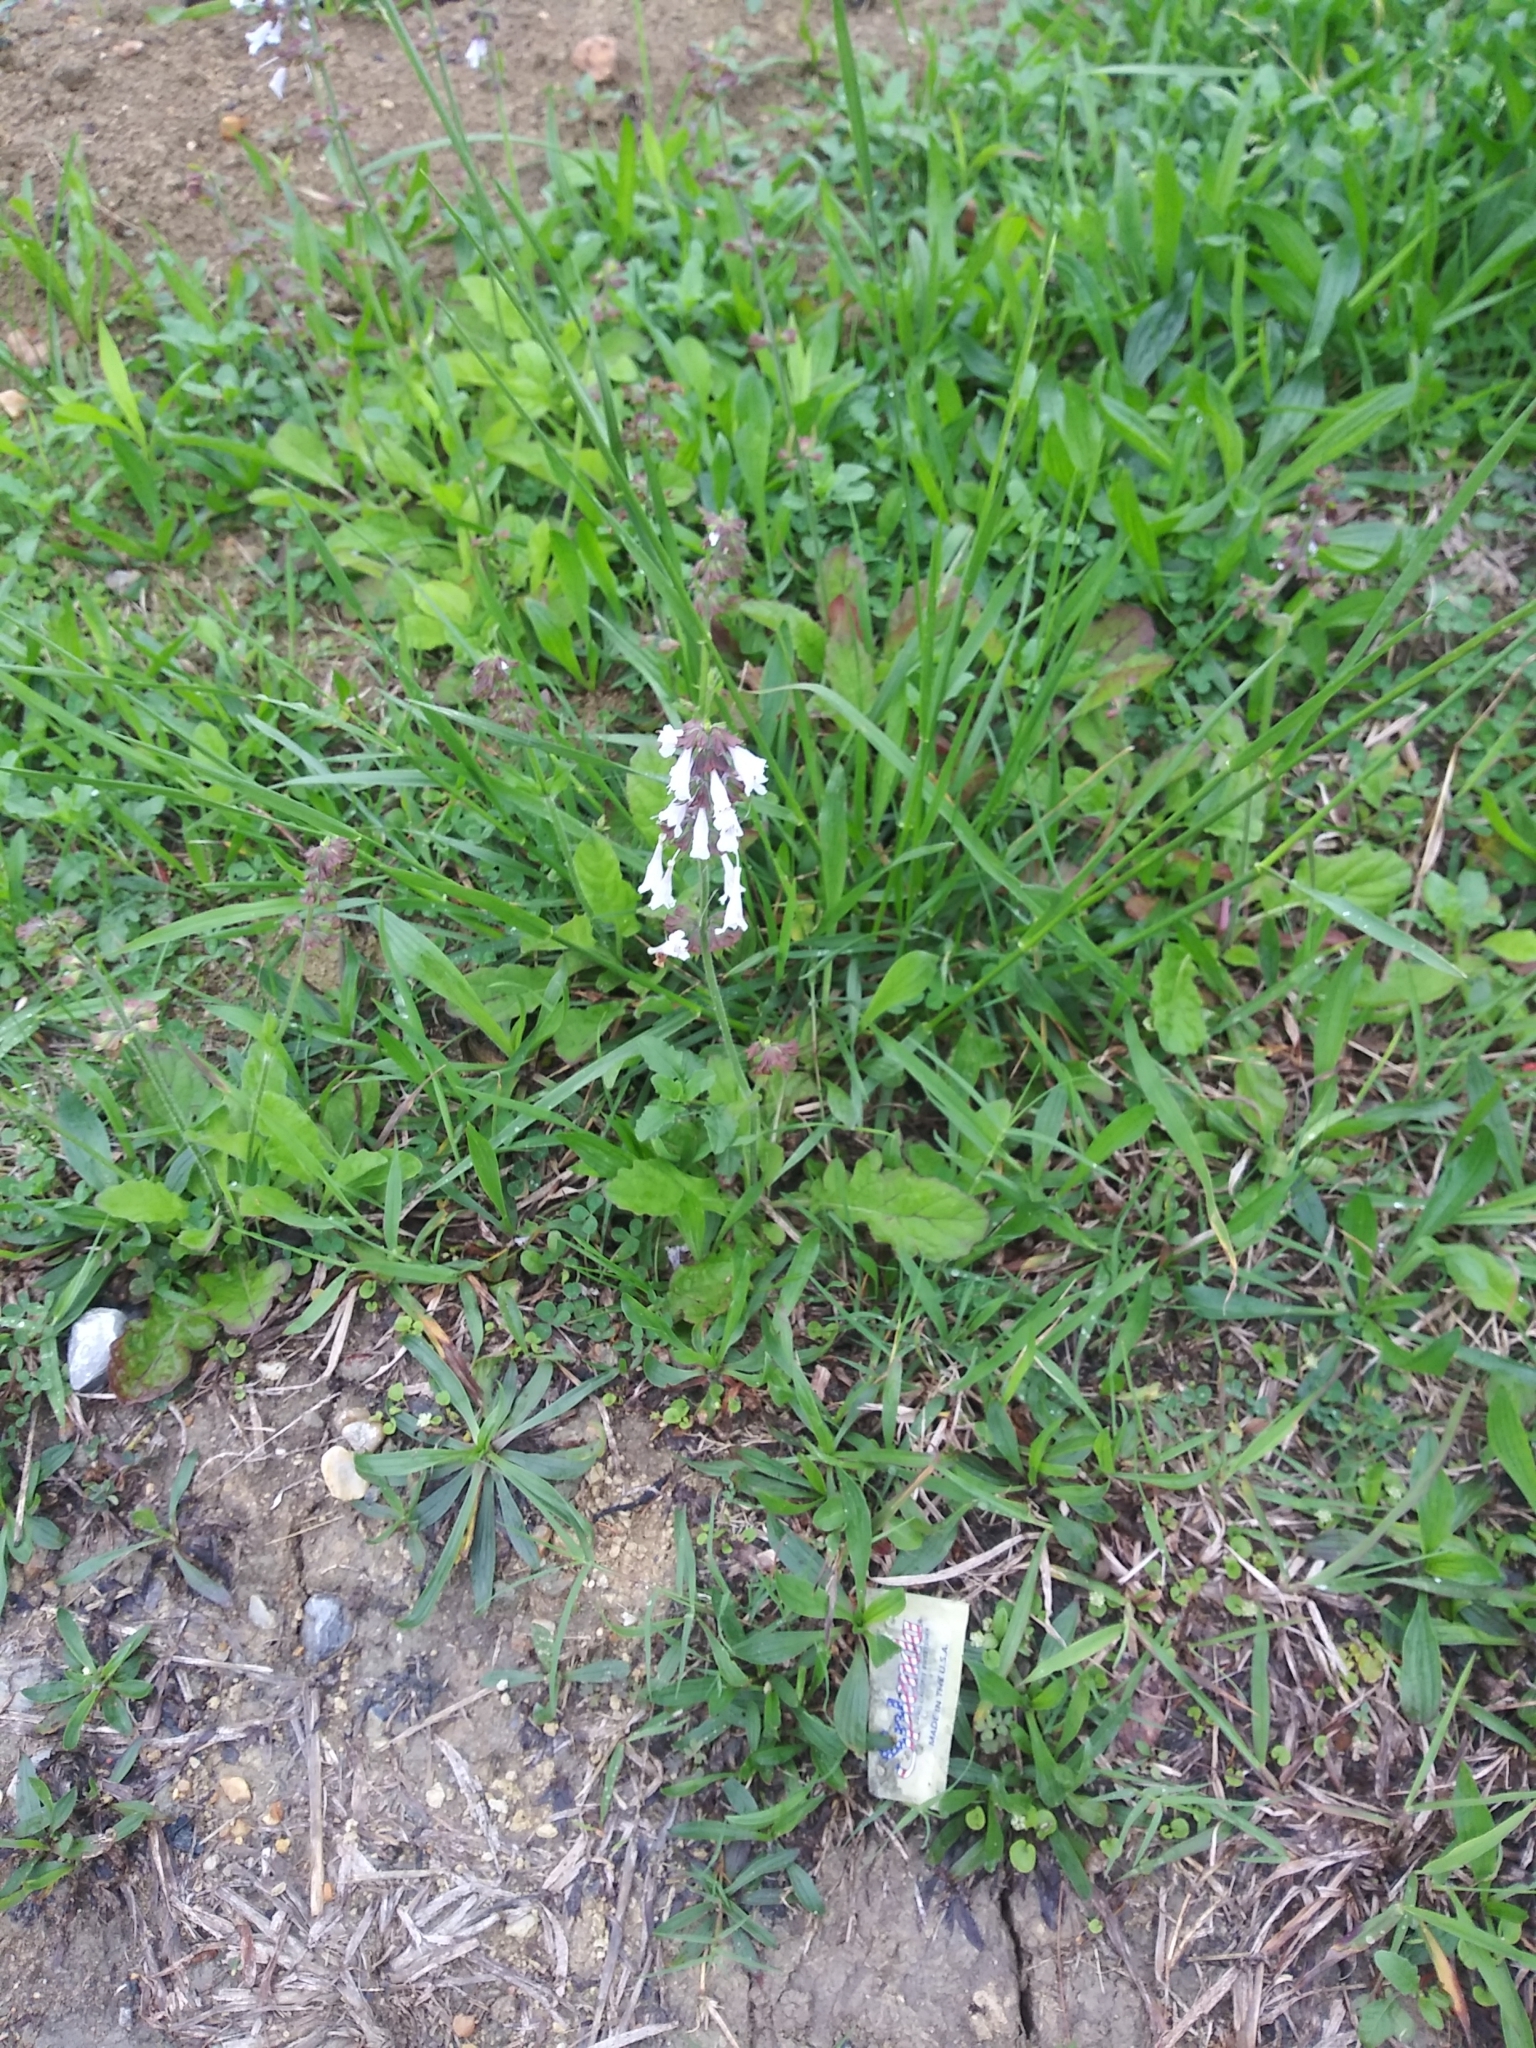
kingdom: Plantae
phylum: Tracheophyta
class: Magnoliopsida
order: Lamiales
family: Lamiaceae
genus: Salvia
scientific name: Salvia lyrata
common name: Cancerweed
